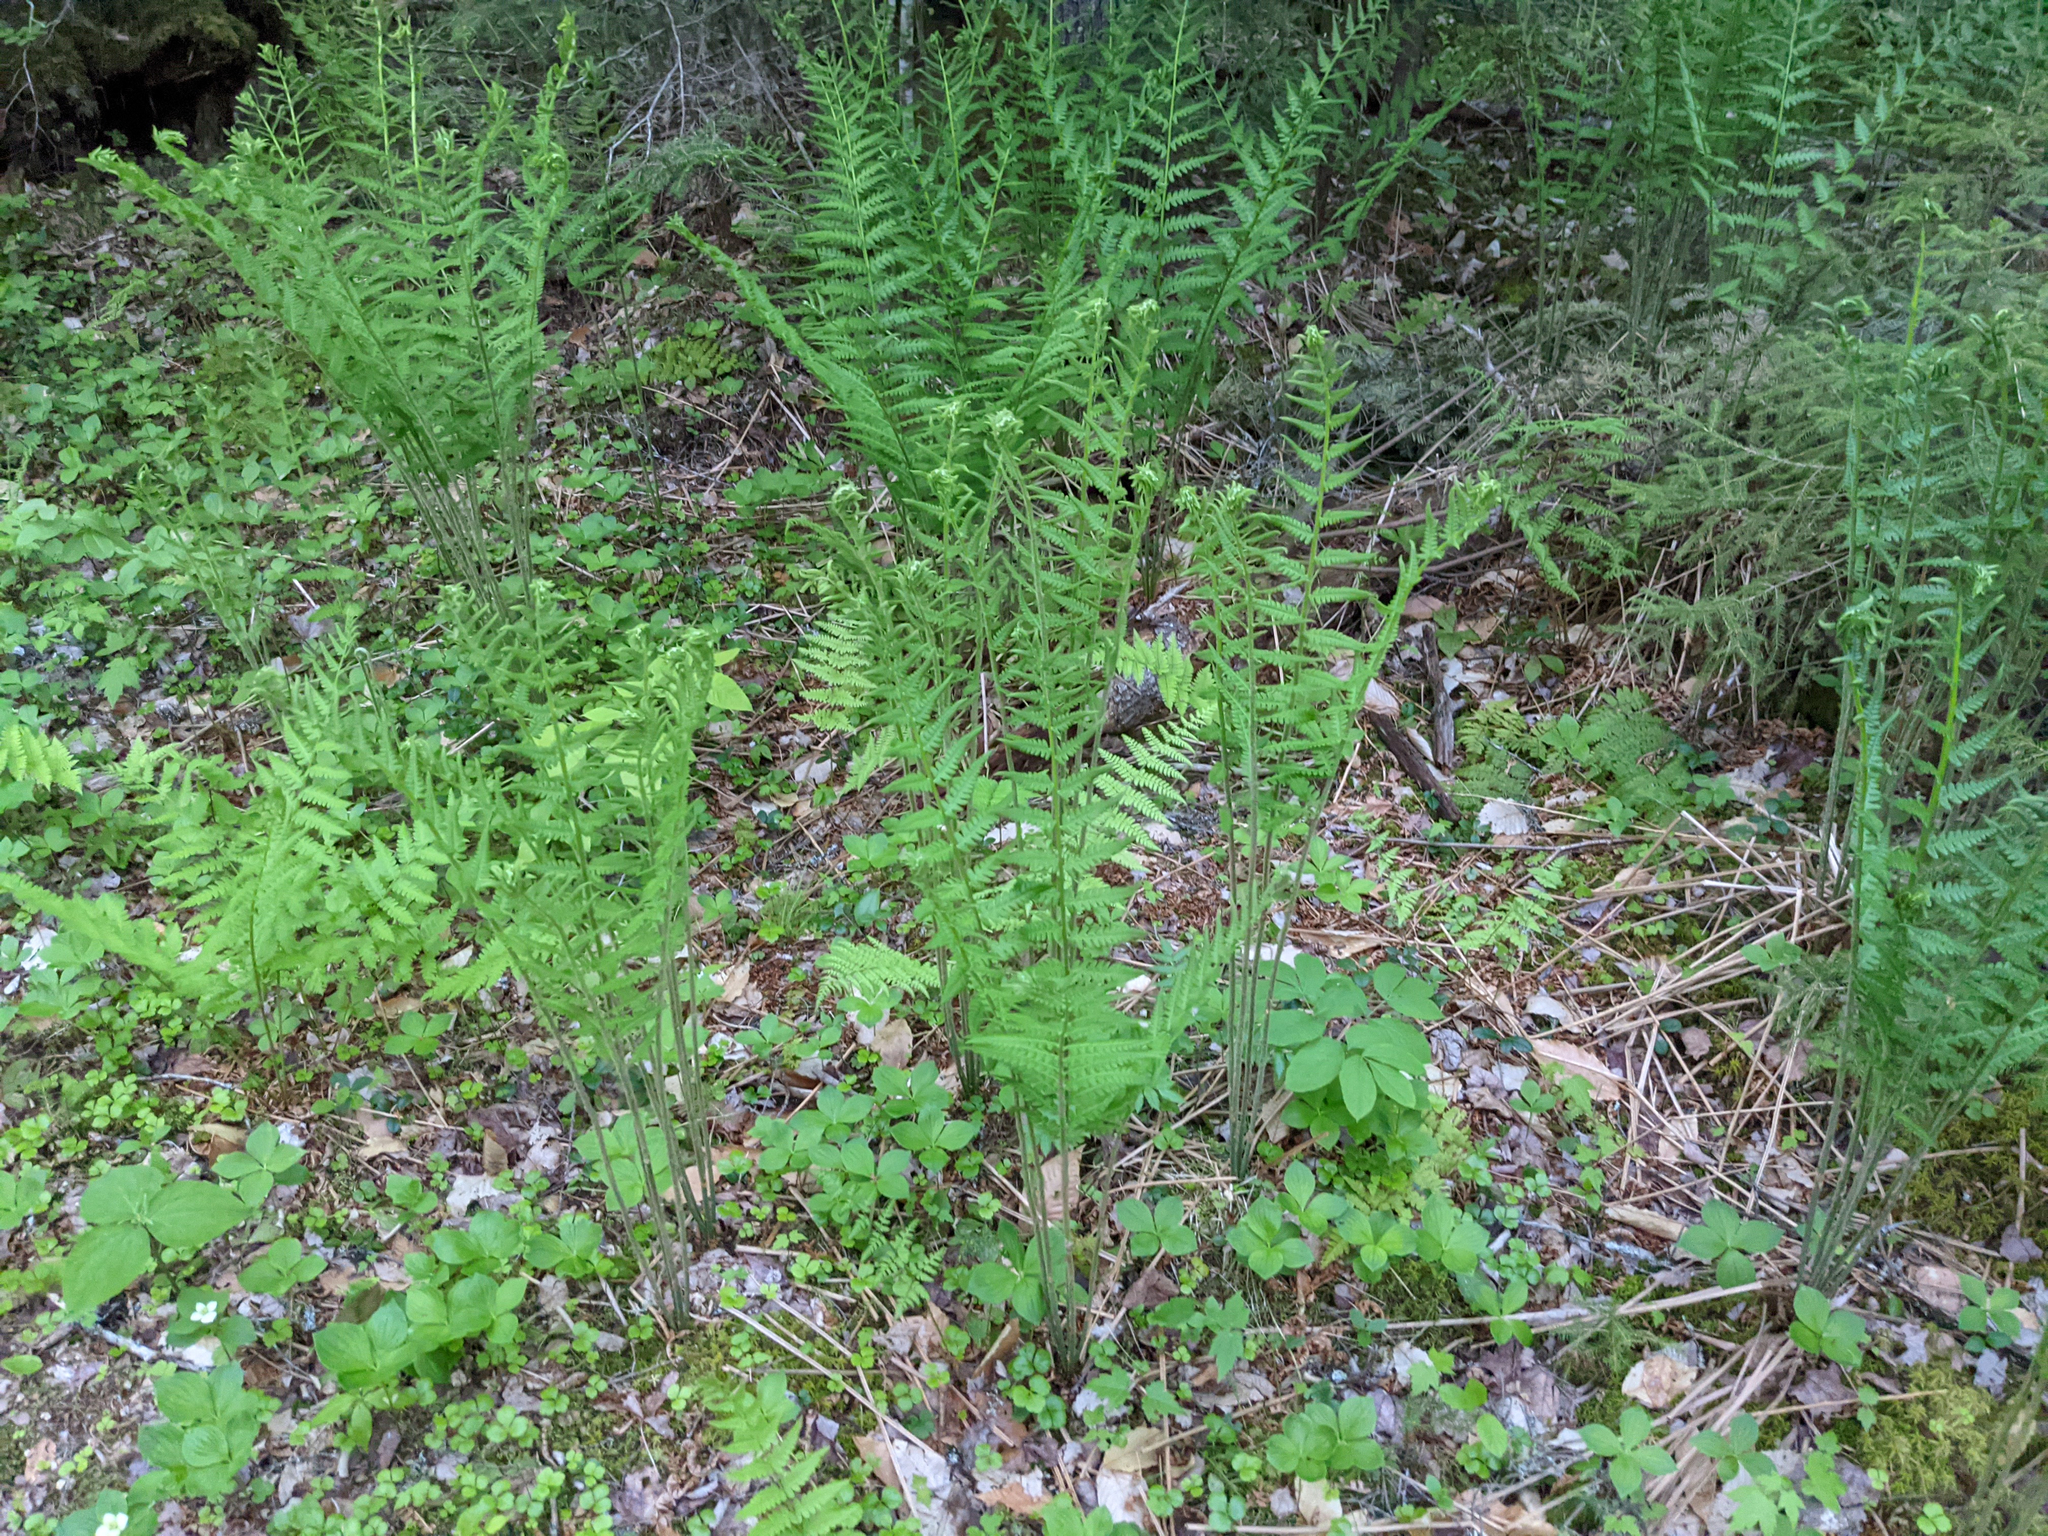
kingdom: Plantae
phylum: Tracheophyta
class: Polypodiopsida
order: Osmundales
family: Osmundaceae
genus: Osmundastrum
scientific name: Osmundastrum cinnamomeum
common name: Cinnamon fern
